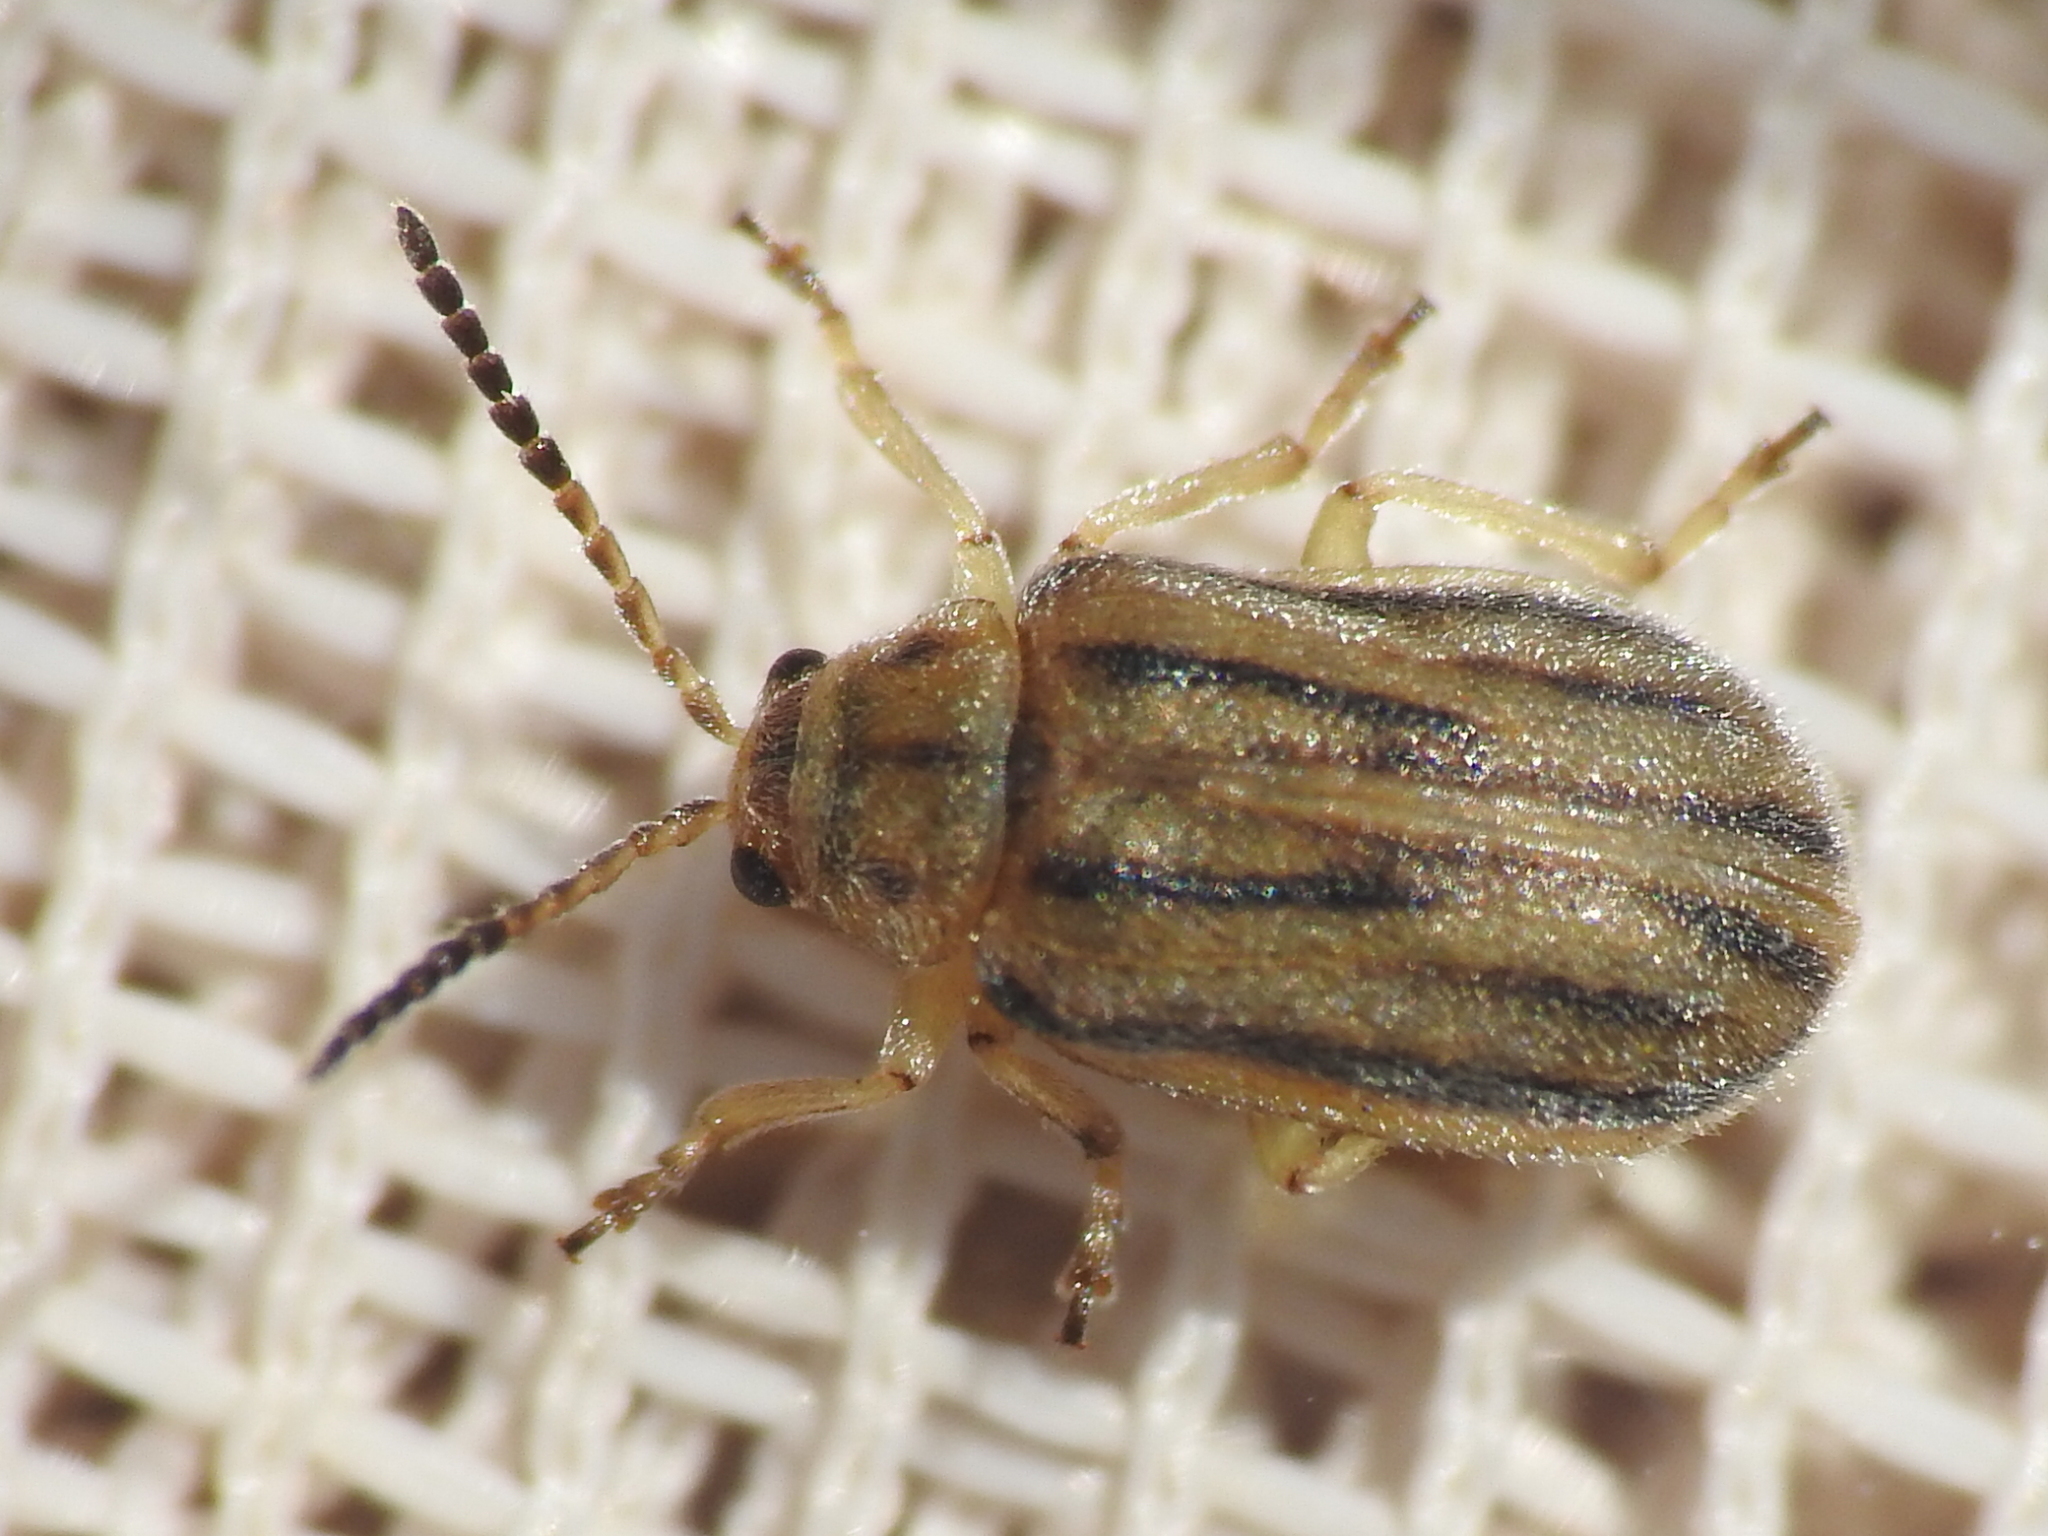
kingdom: Animalia
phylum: Arthropoda
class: Insecta
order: Coleoptera
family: Chrysomelidae
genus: Ophraella
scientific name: Ophraella communa
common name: Ragweed leaf beetle
